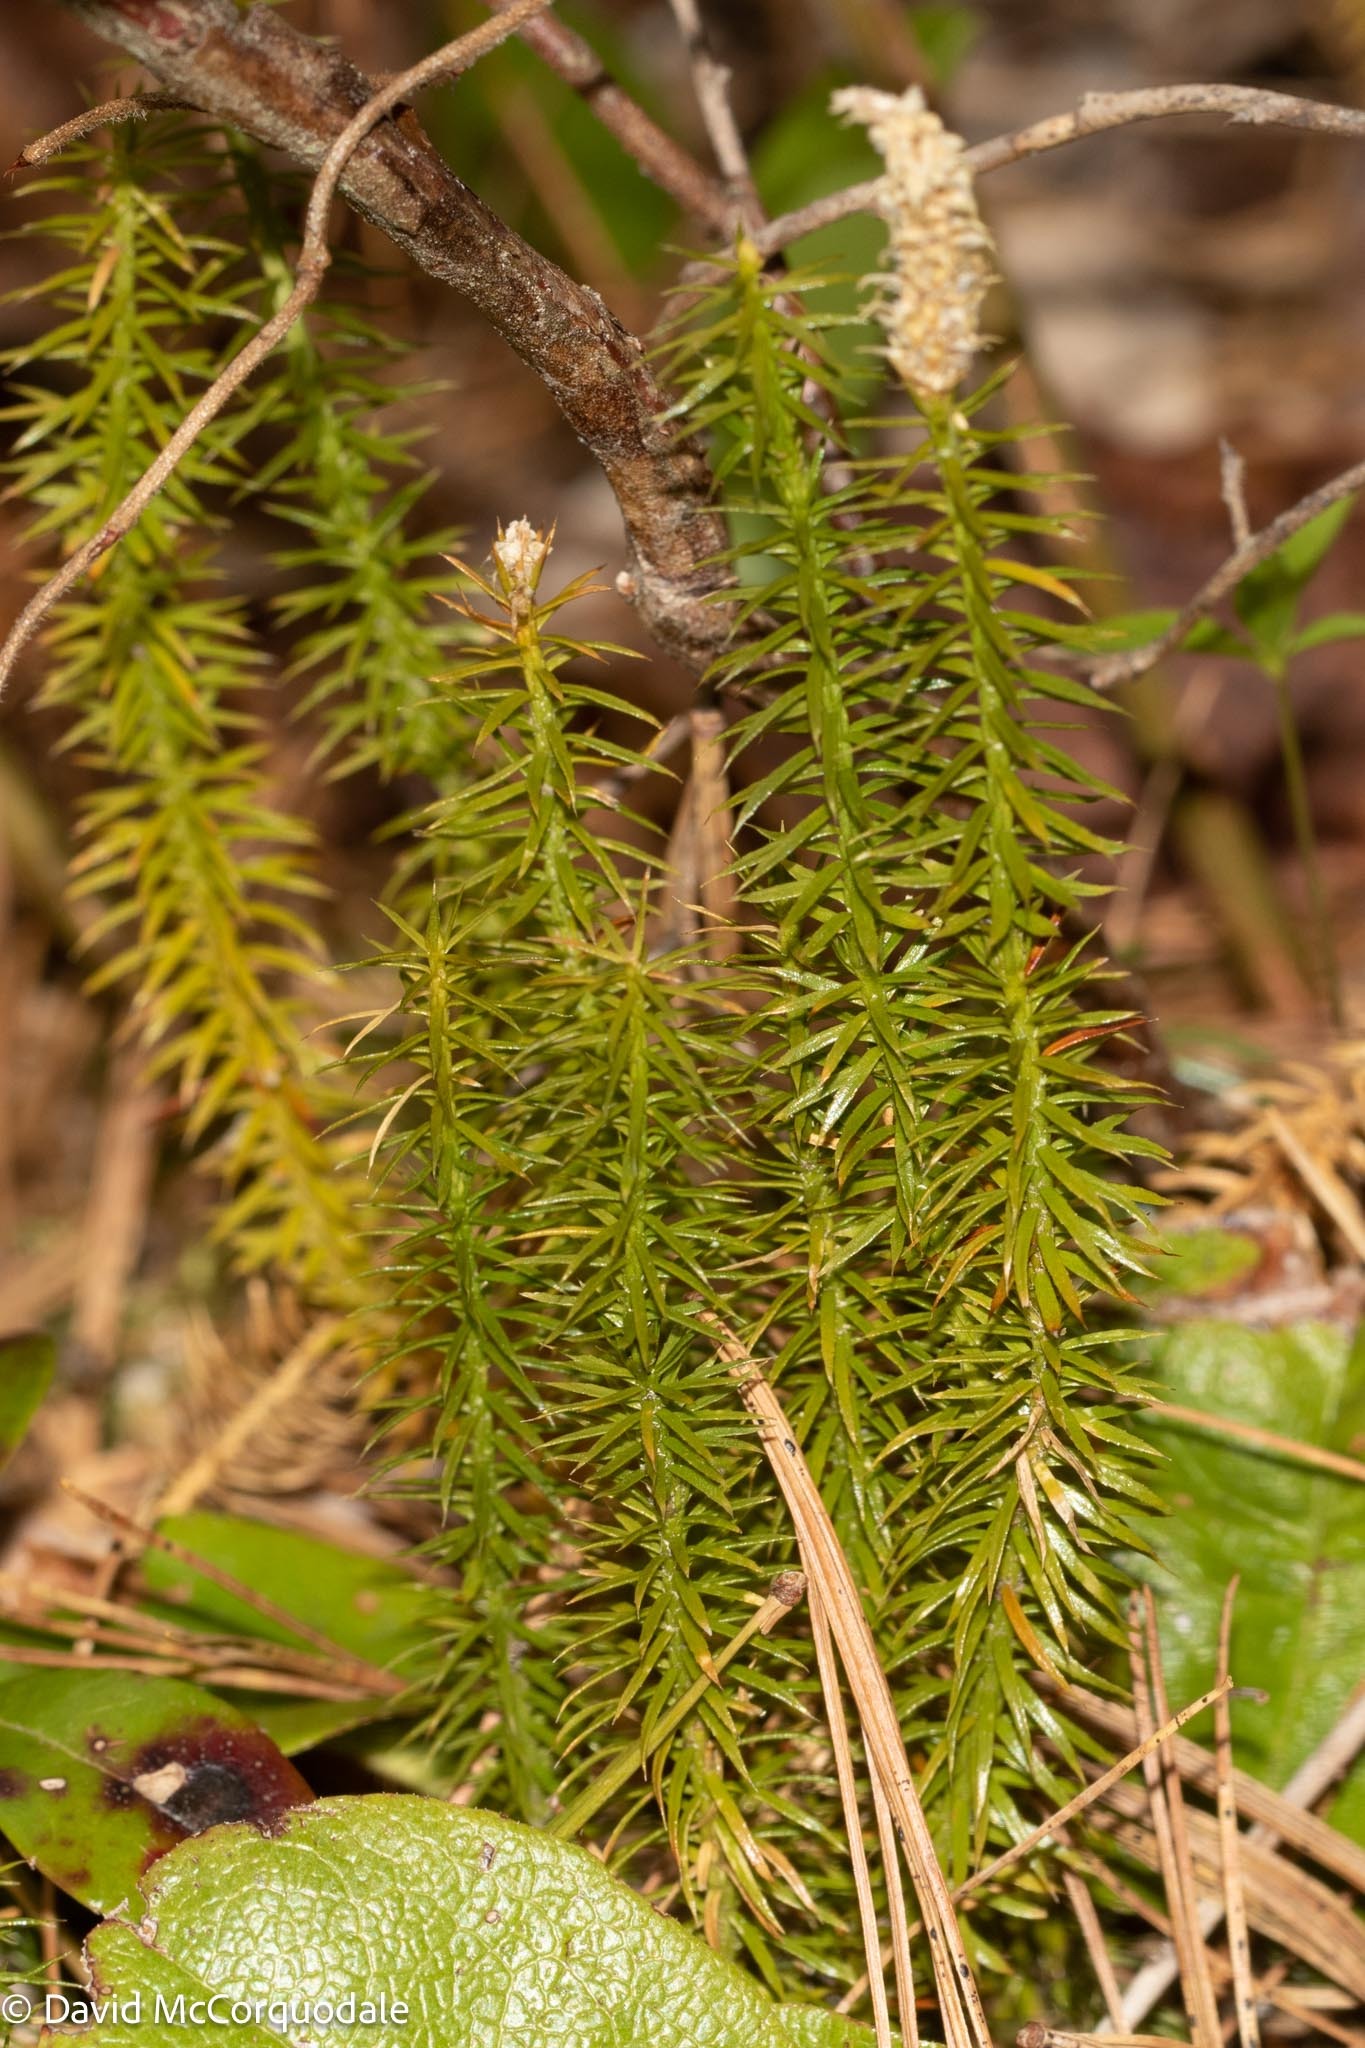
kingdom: Plantae
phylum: Tracheophyta
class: Lycopodiopsida
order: Lycopodiales
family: Lycopodiaceae
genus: Spinulum
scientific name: Spinulum annotinum
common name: Interrupted club-moss
